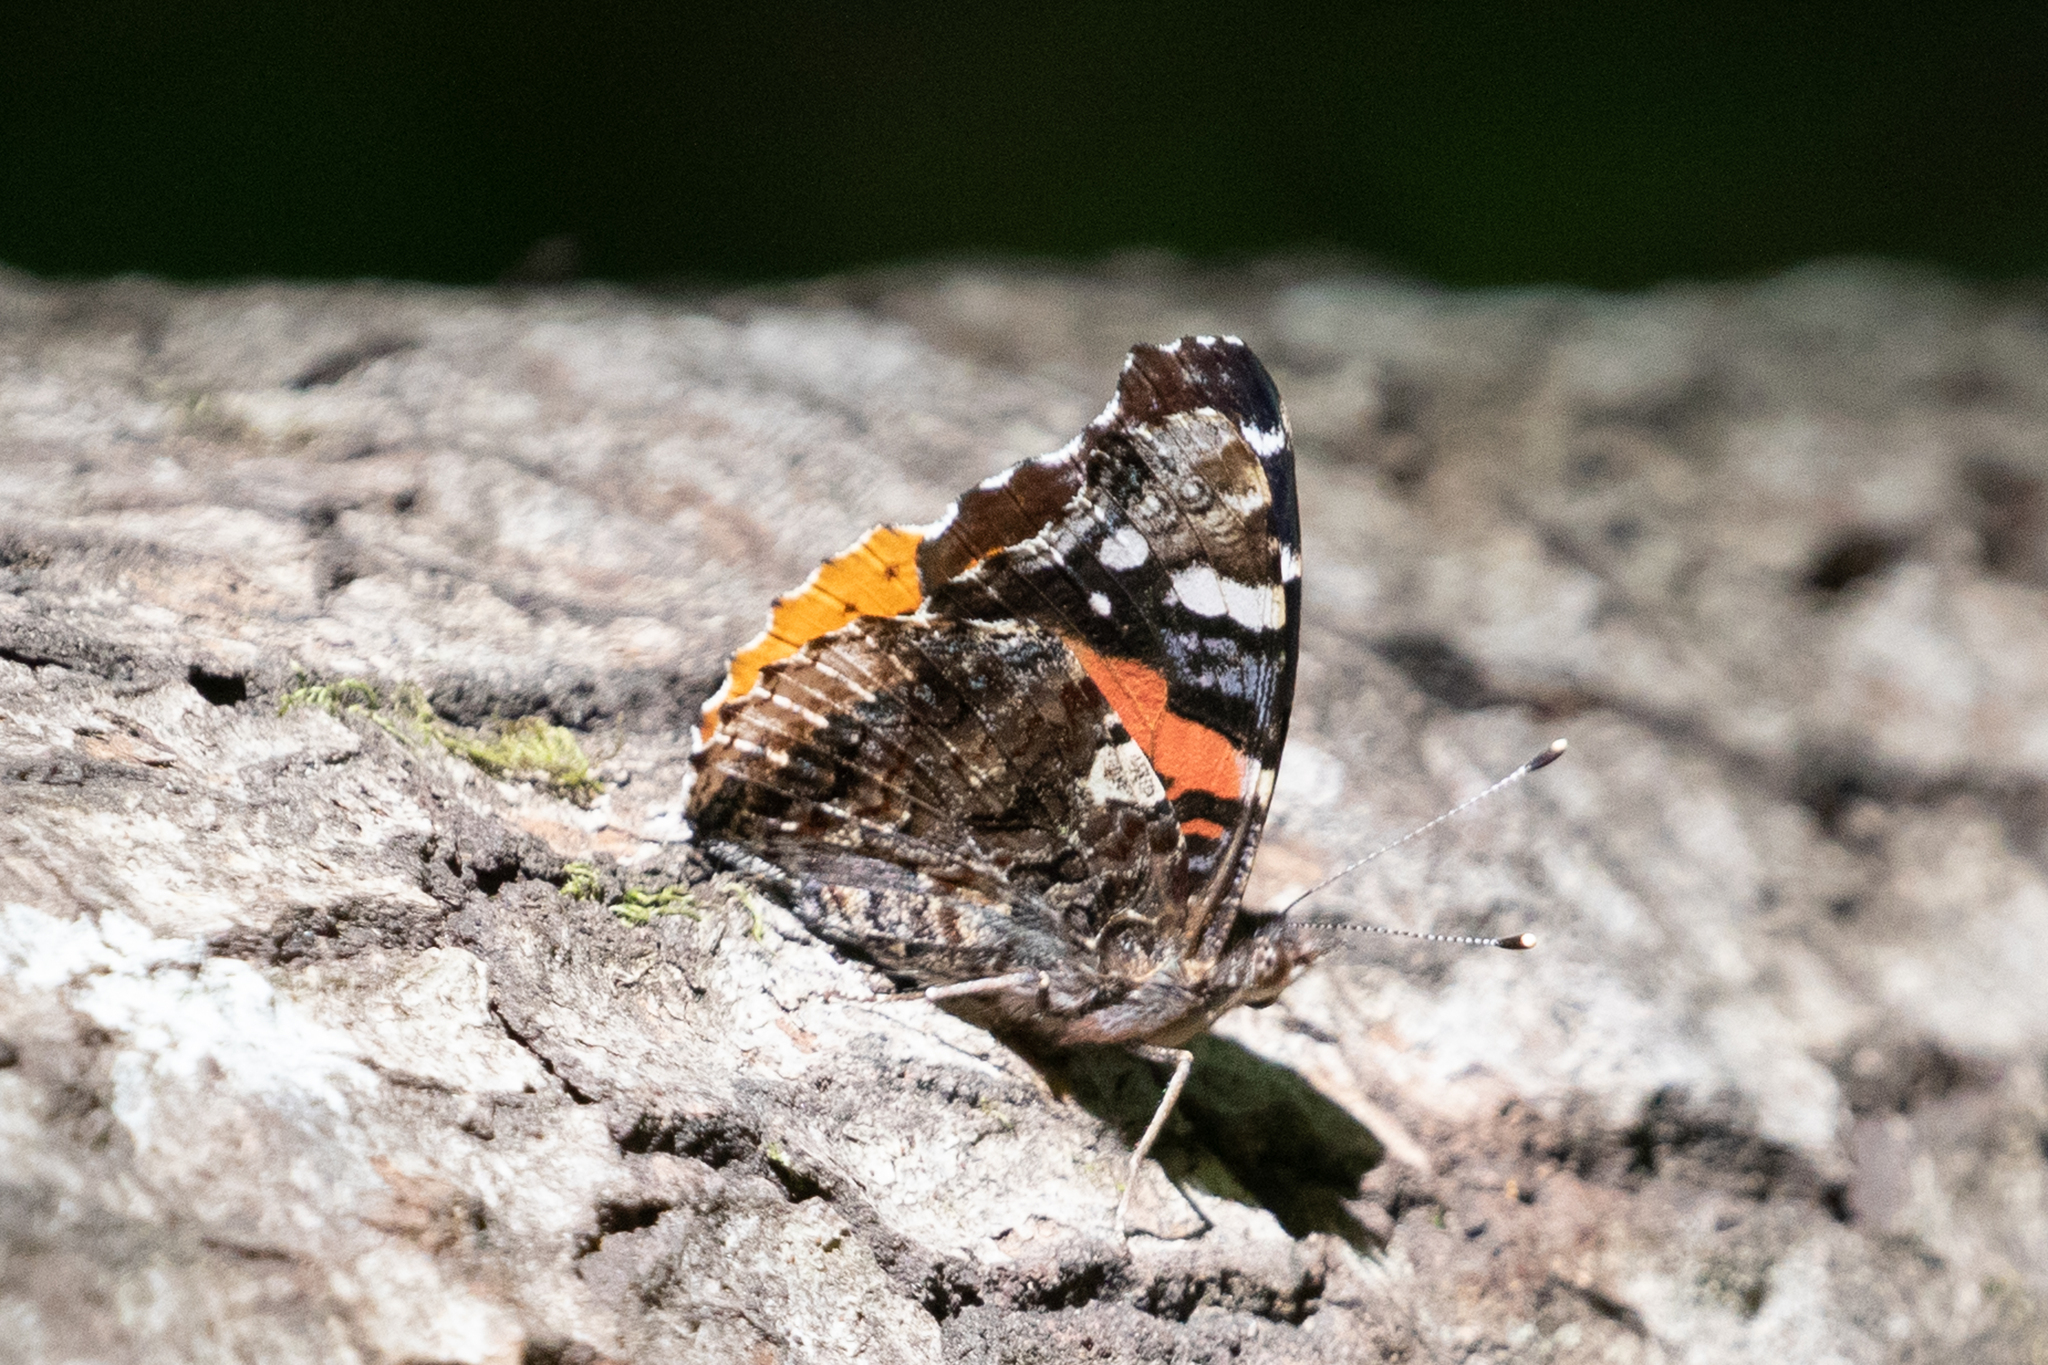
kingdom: Animalia
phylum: Arthropoda
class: Insecta
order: Lepidoptera
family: Nymphalidae
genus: Vanessa
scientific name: Vanessa atalanta
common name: Red admiral
